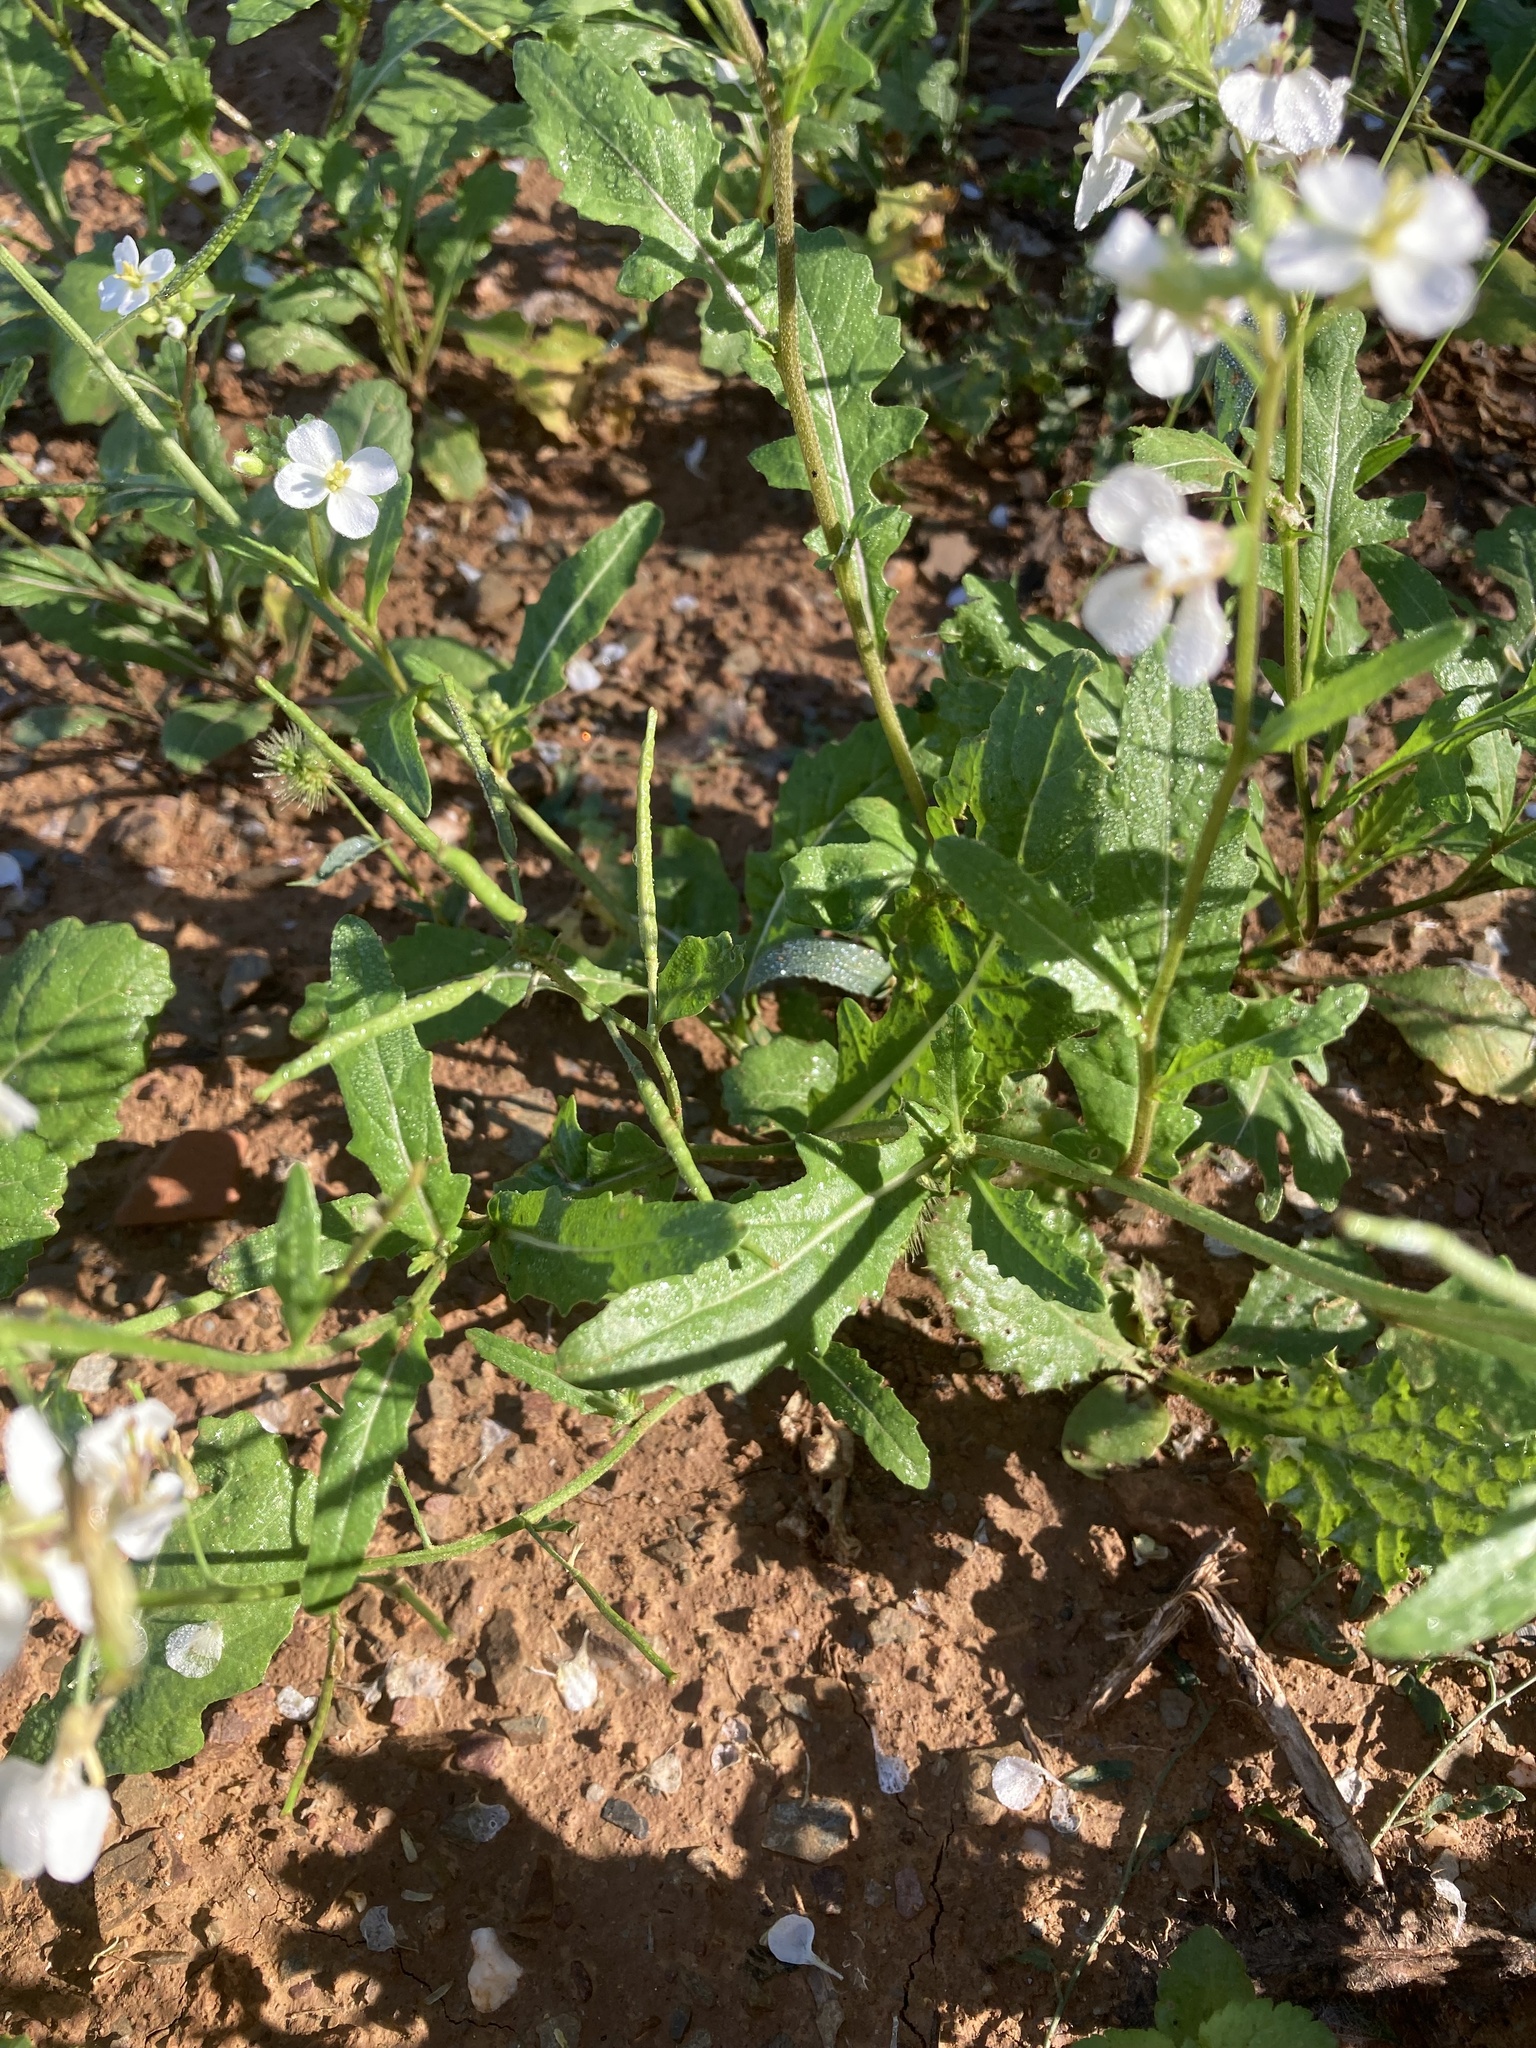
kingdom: Plantae
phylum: Tracheophyta
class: Magnoliopsida
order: Brassicales
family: Brassicaceae
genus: Diplotaxis
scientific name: Diplotaxis erucoides
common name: White rocket
